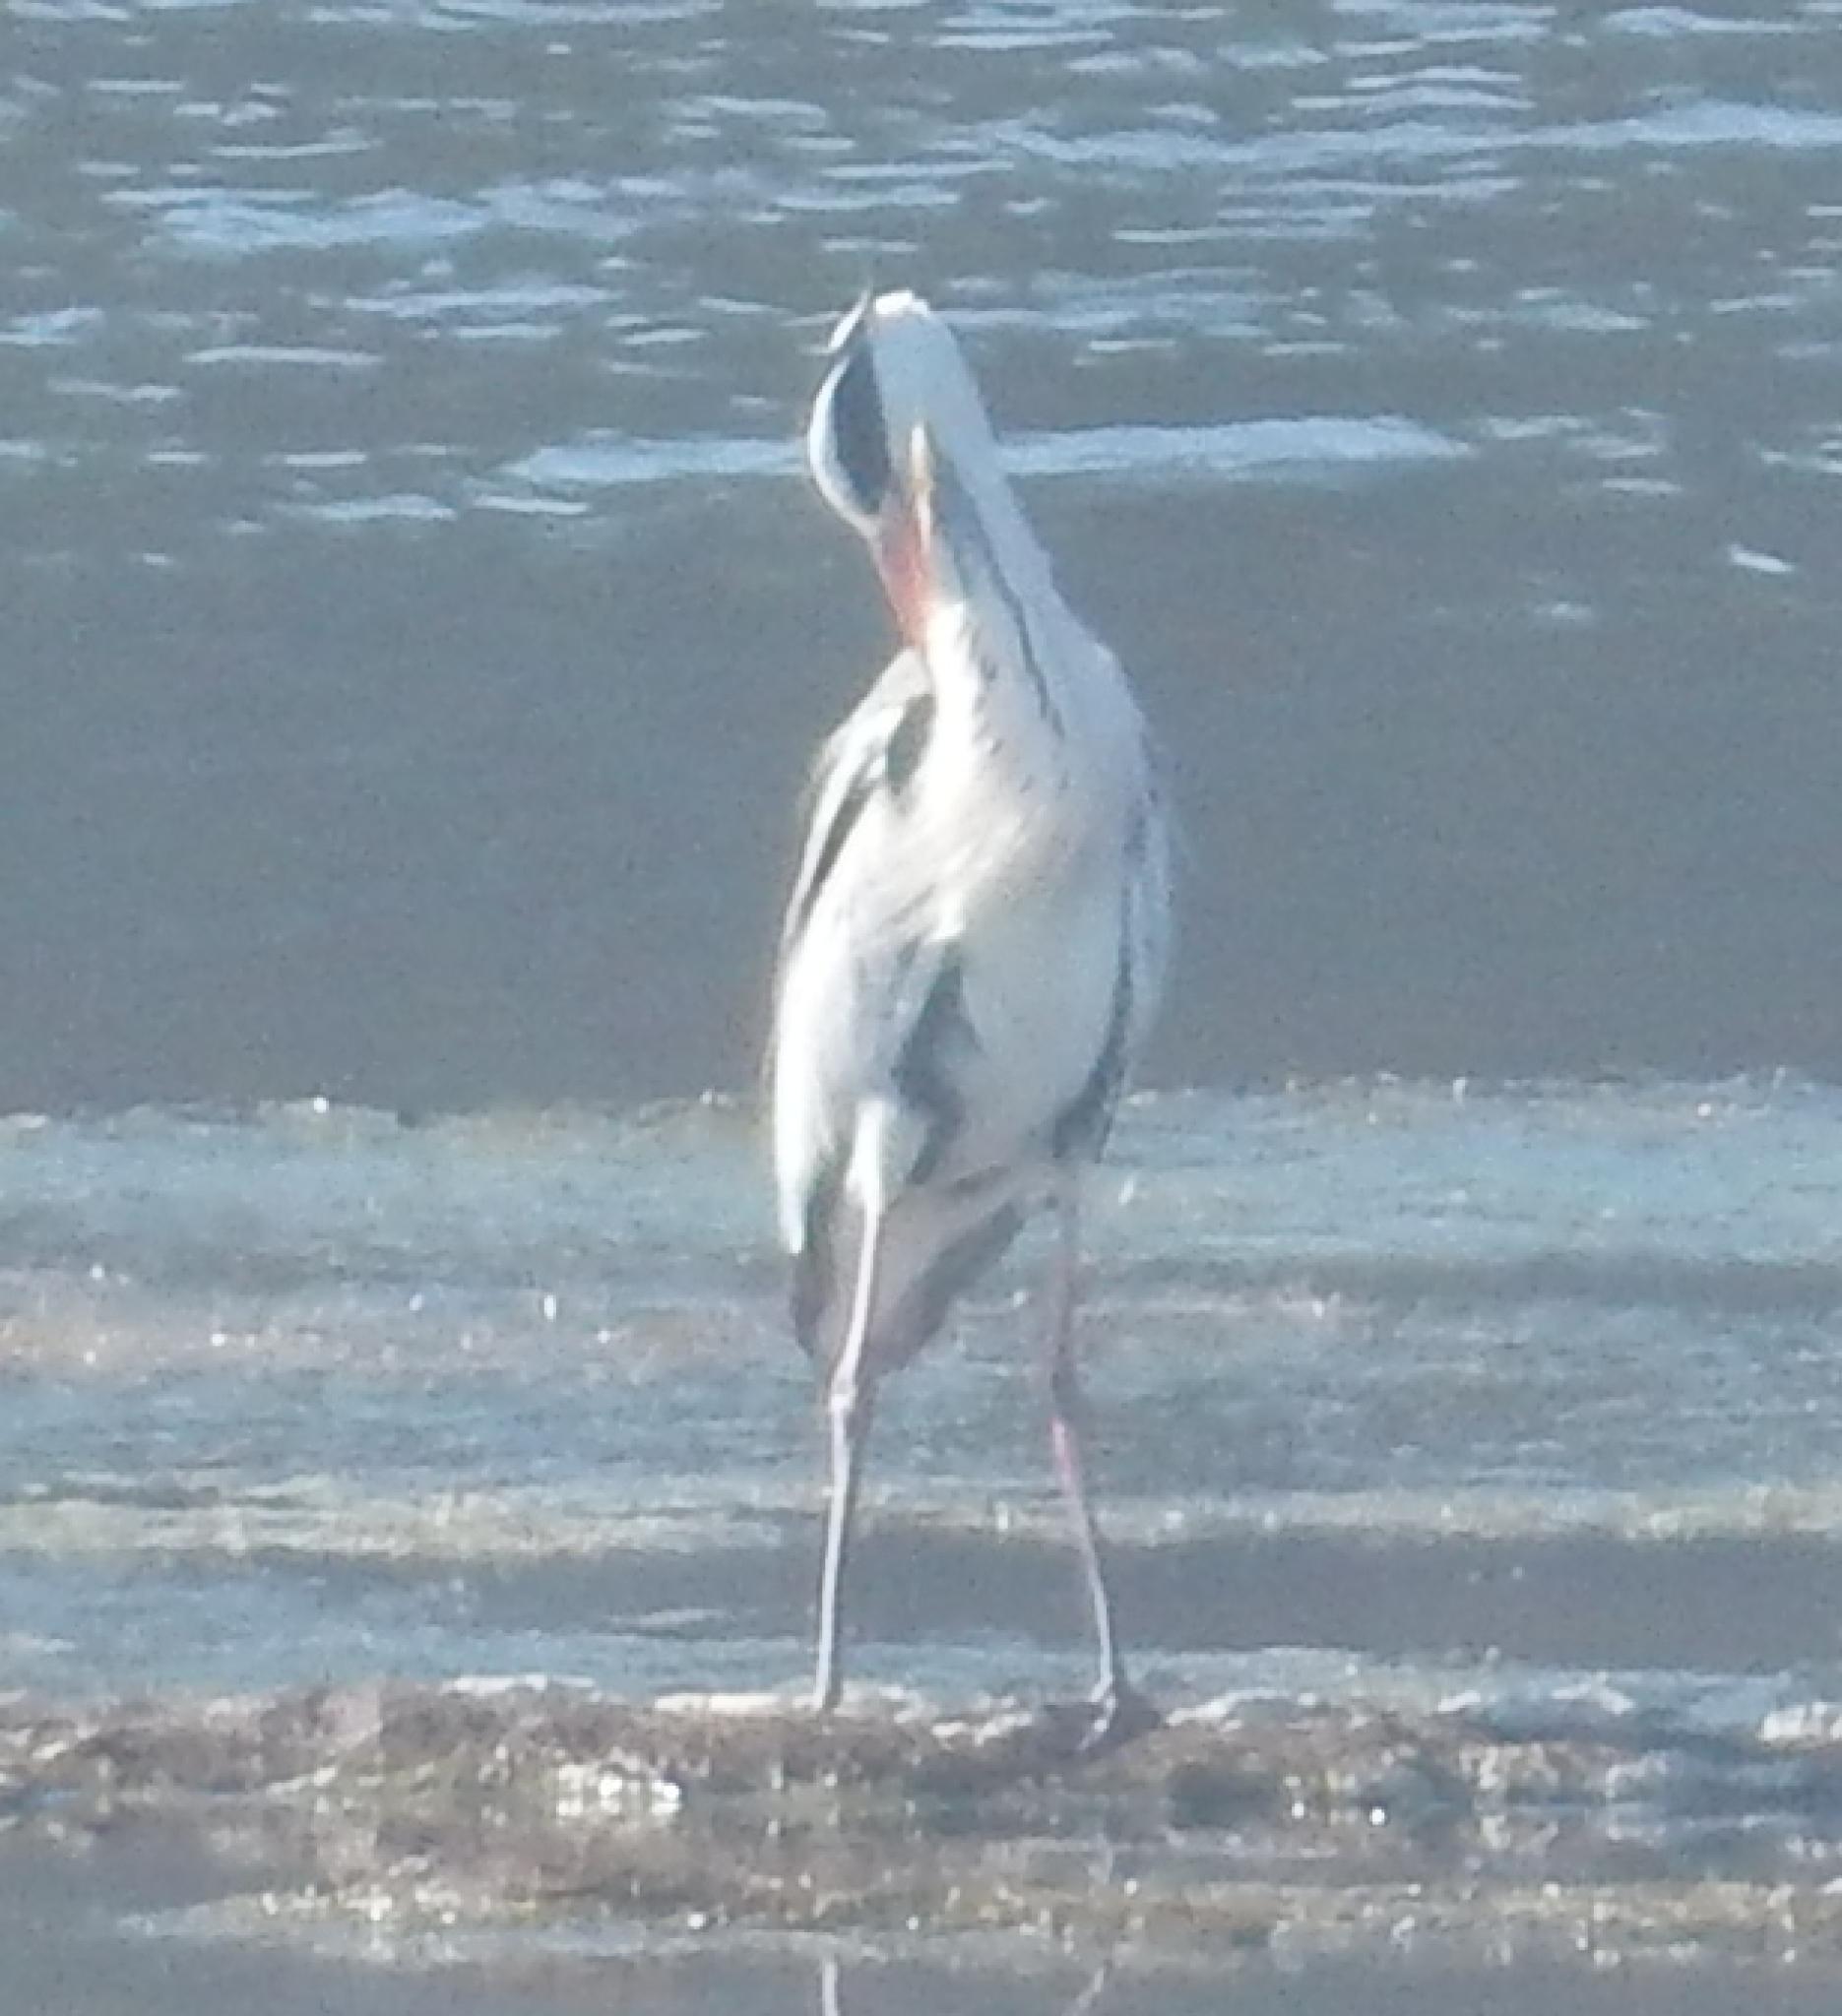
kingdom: Animalia
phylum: Chordata
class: Aves
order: Pelecaniformes
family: Ardeidae
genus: Ardea
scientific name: Ardea cinerea
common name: Grey heron
